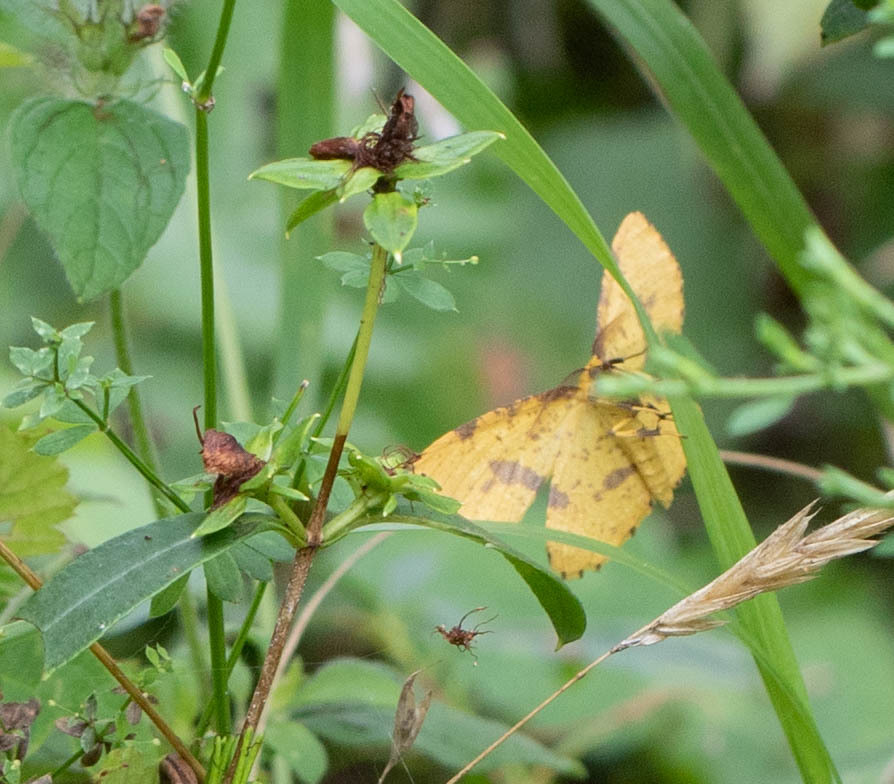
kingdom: Animalia
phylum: Arthropoda
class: Insecta
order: Lepidoptera
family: Geometridae
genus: Xanthotype
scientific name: Xanthotype
